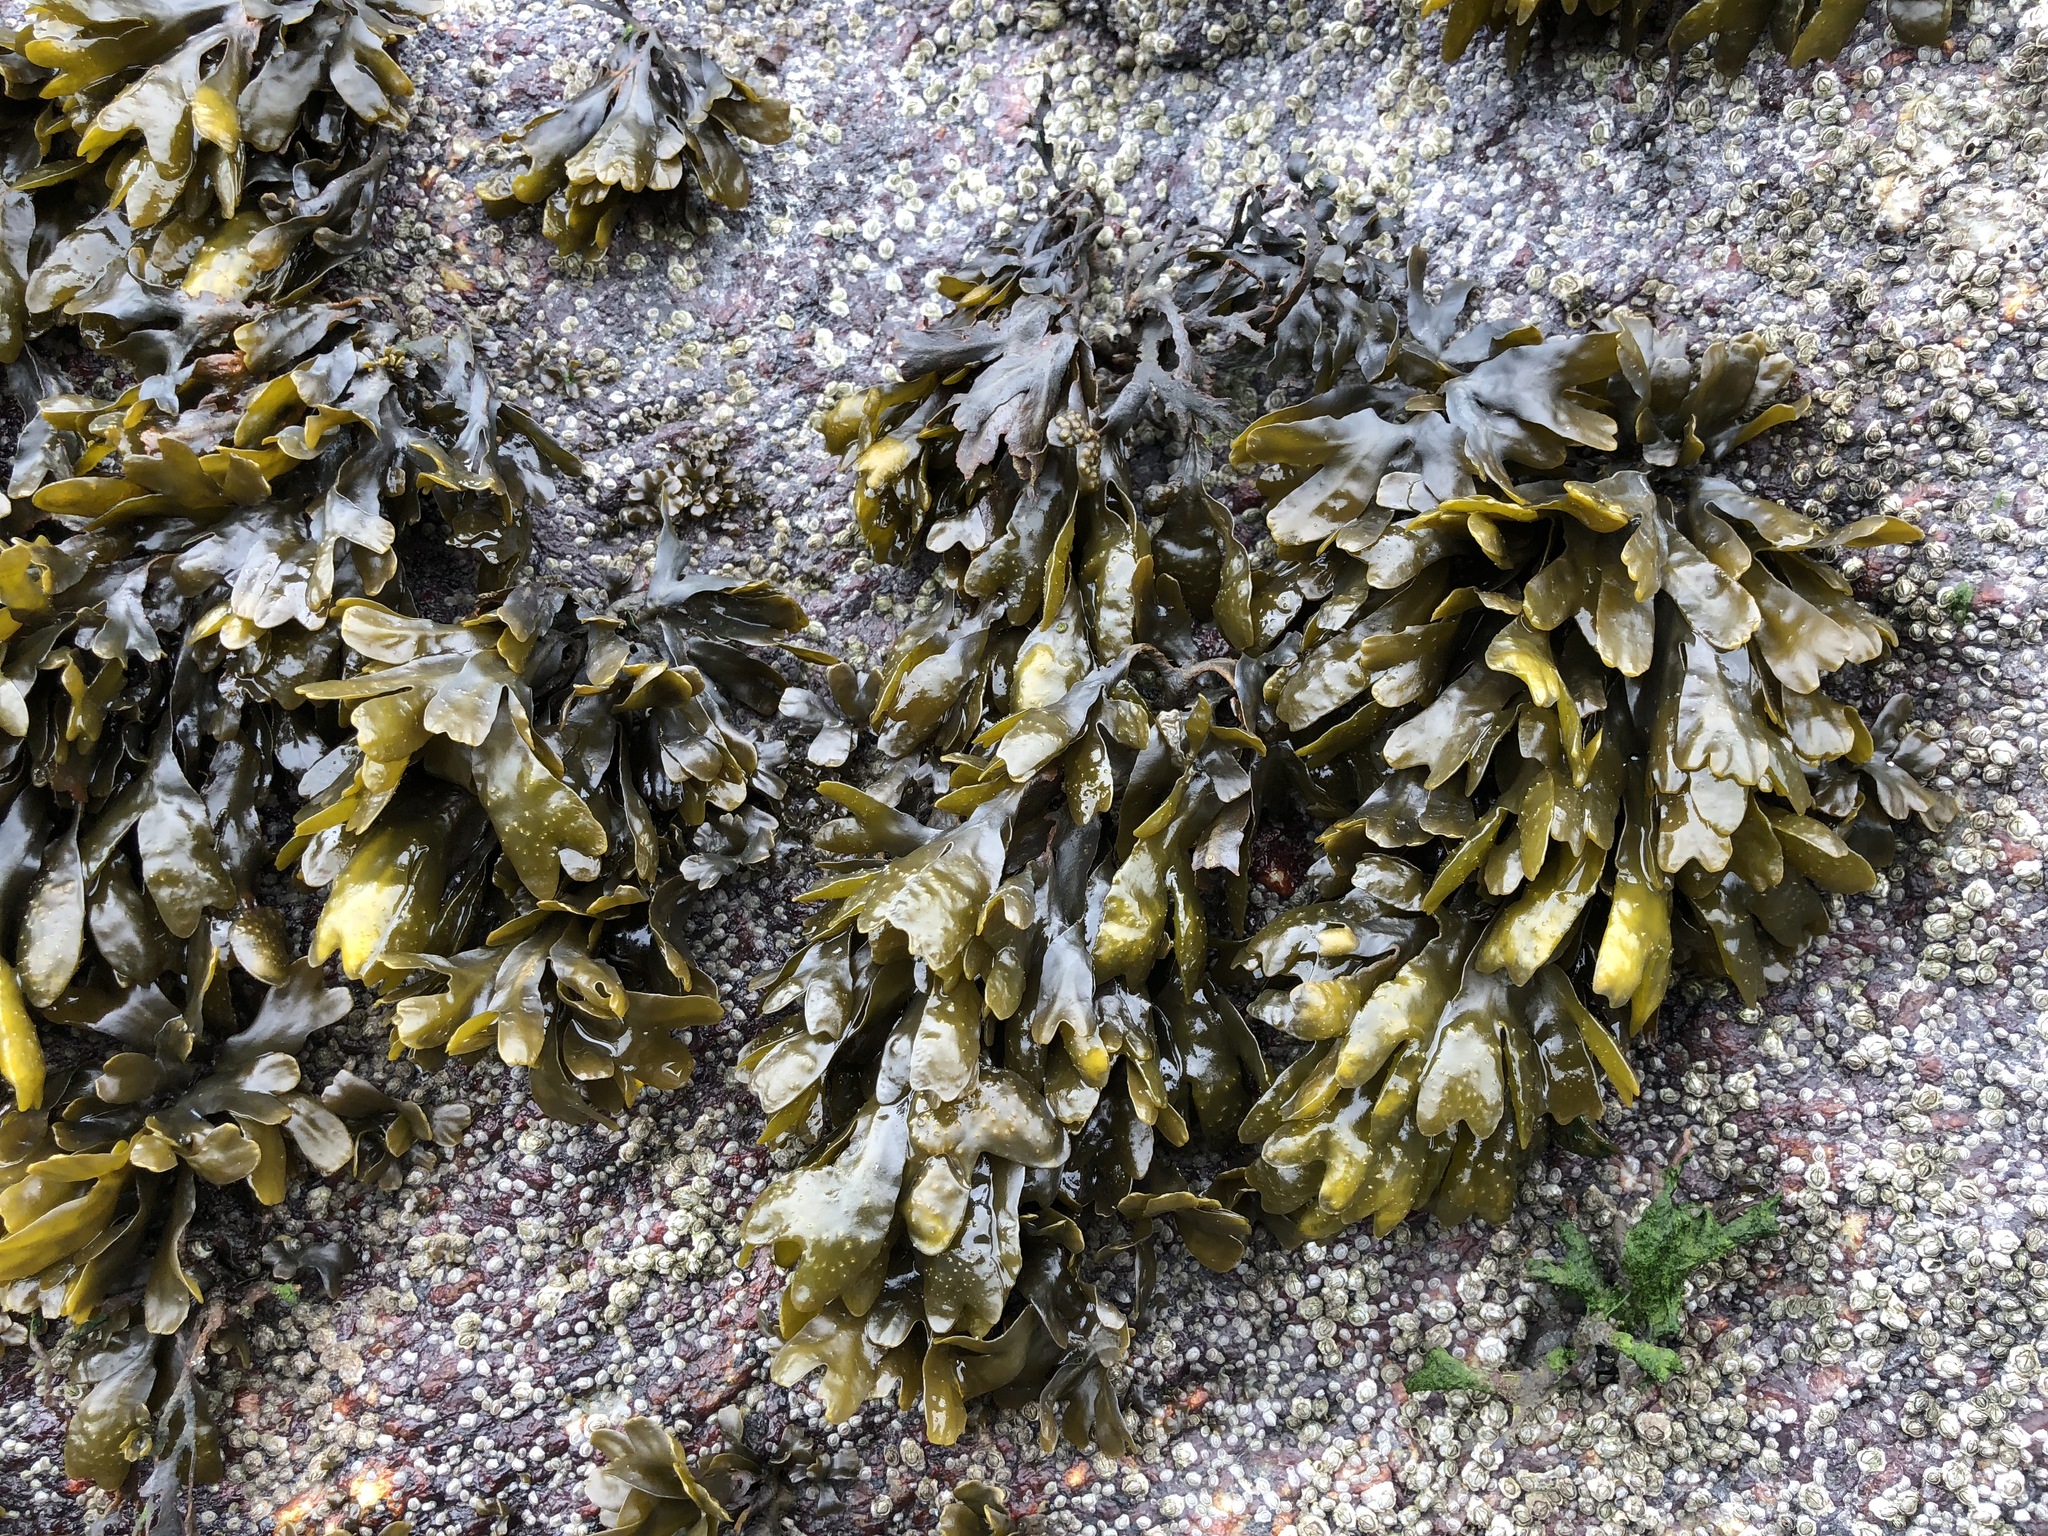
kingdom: Chromista
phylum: Ochrophyta
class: Phaeophyceae
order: Fucales
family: Fucaceae
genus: Fucus
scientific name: Fucus distichus
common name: Rockweed
